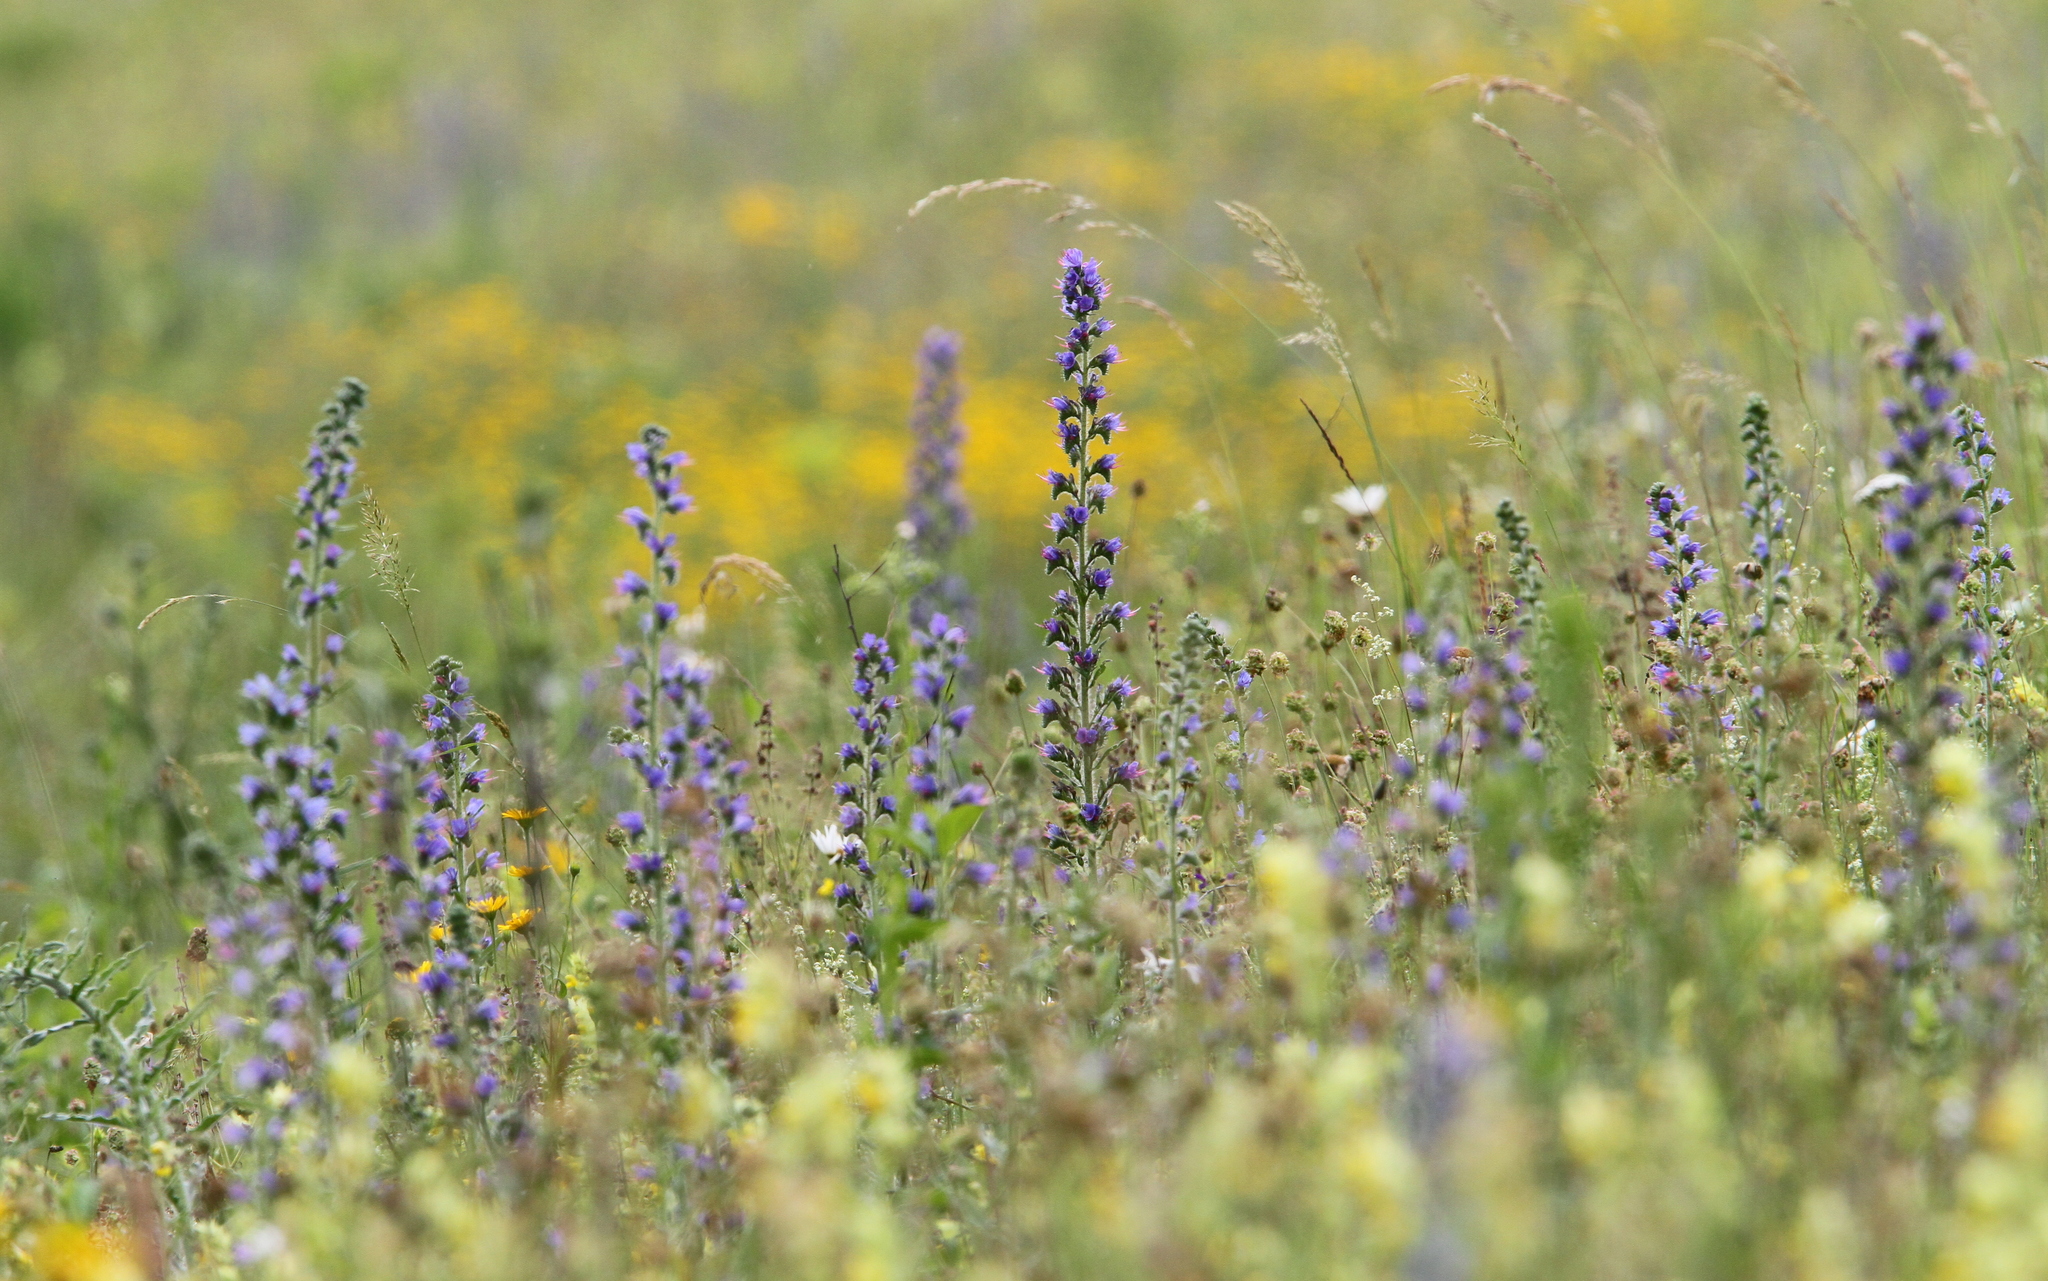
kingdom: Plantae
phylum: Tracheophyta
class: Magnoliopsida
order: Boraginales
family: Boraginaceae
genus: Echium
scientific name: Echium vulgare
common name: Common viper's bugloss
